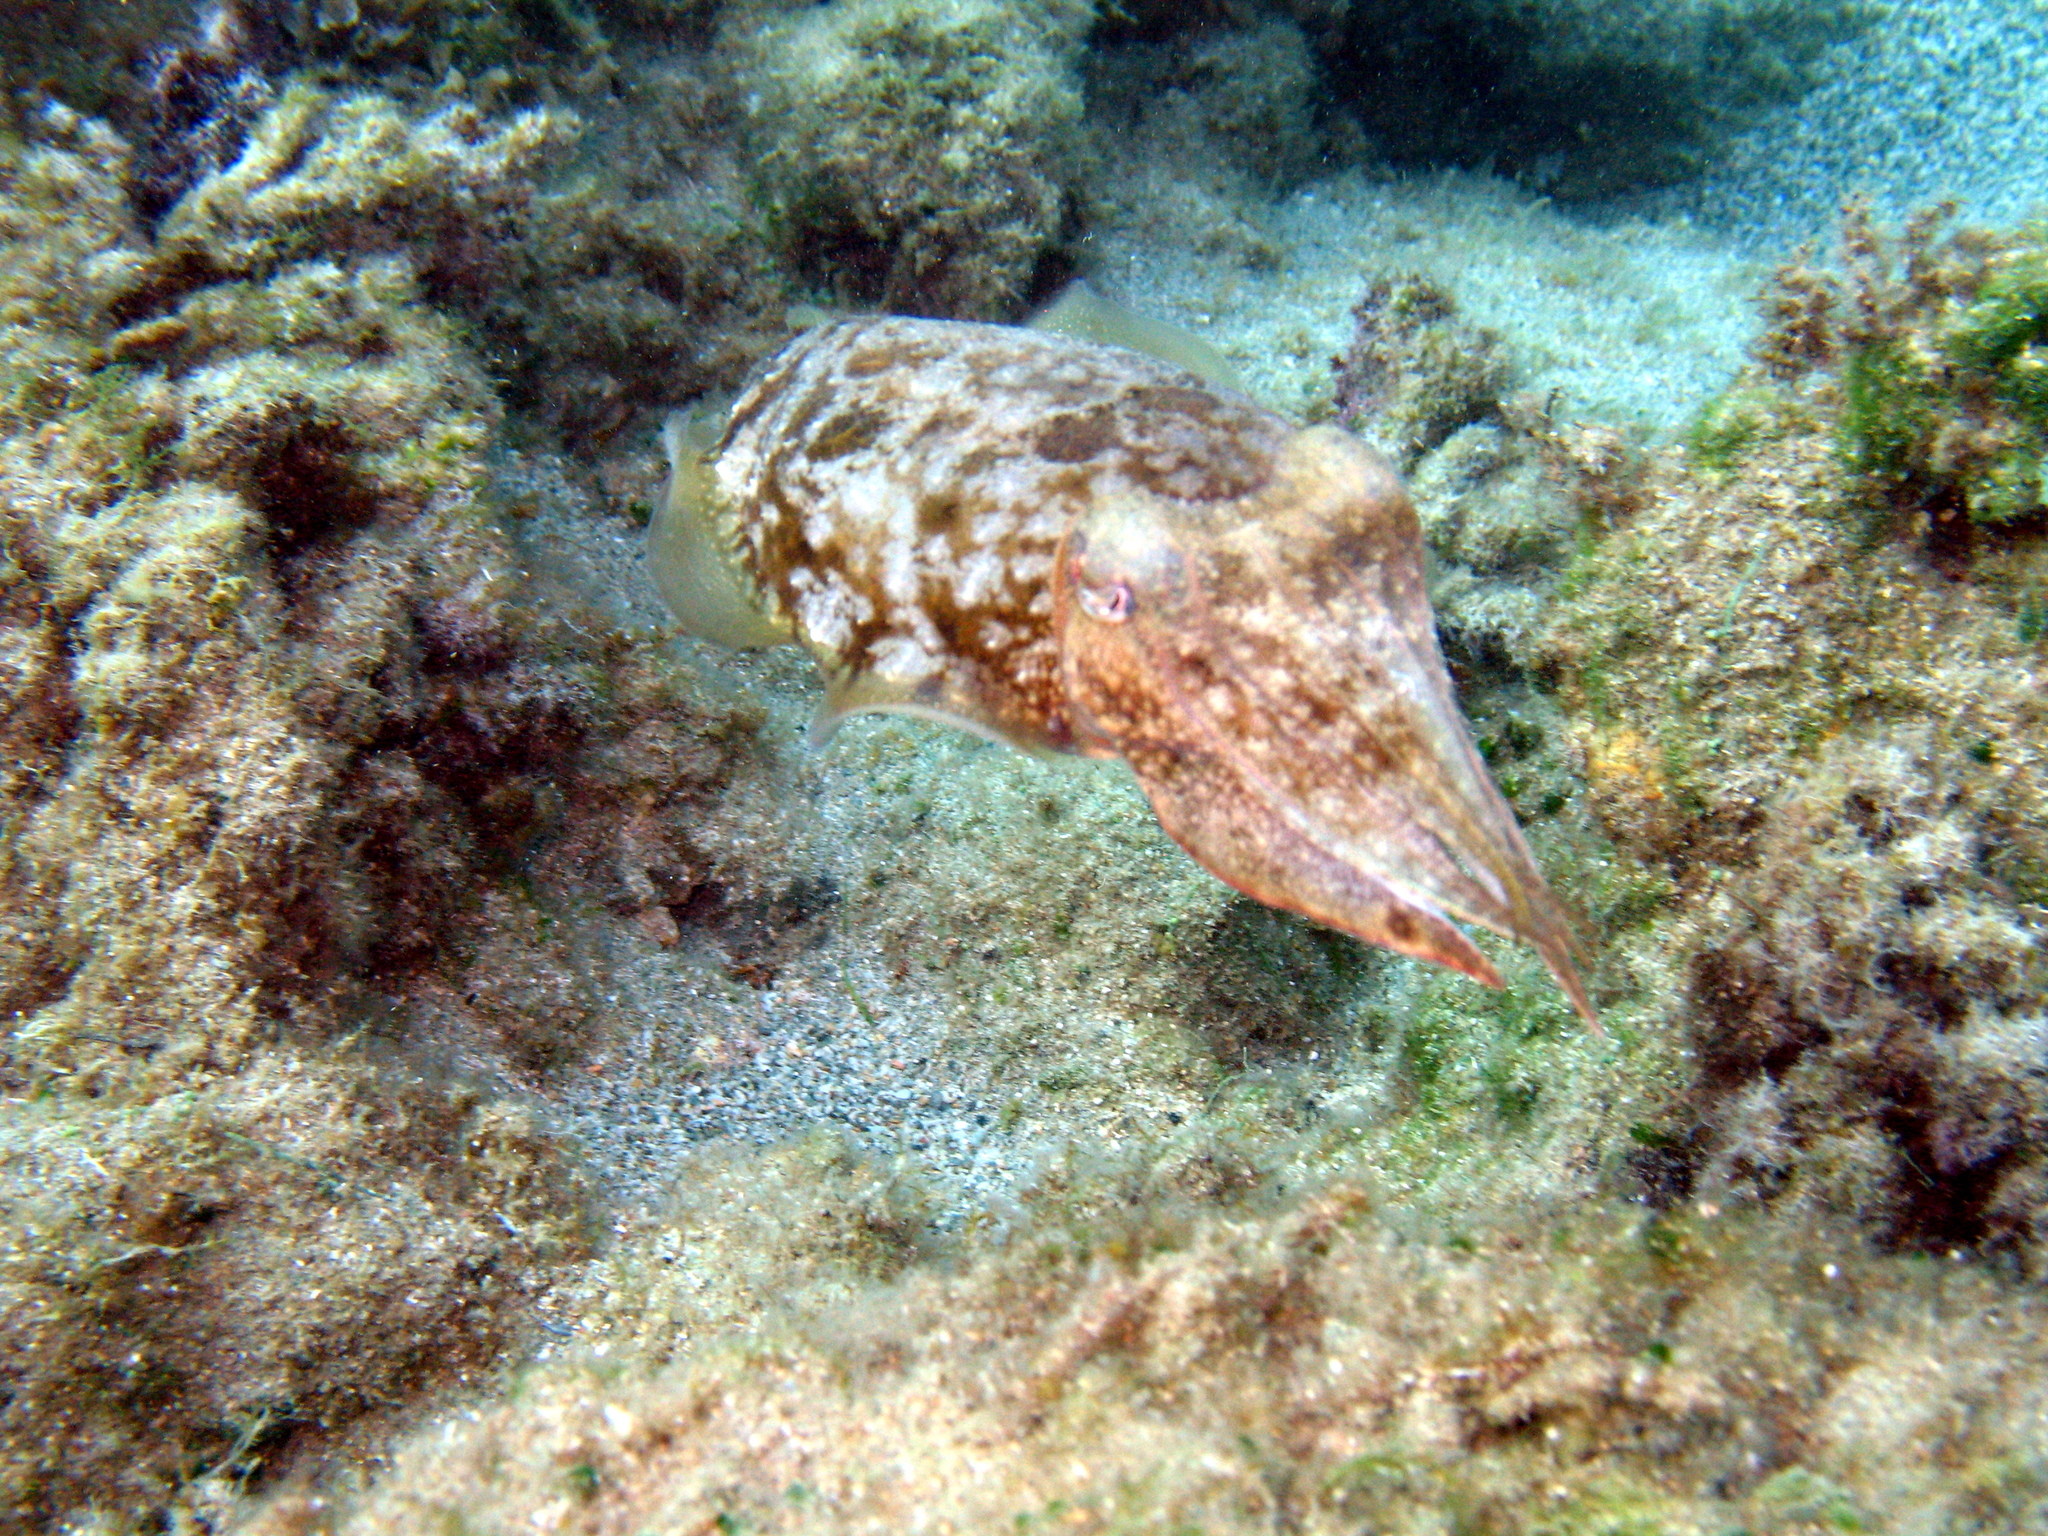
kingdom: Animalia
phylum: Mollusca
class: Cephalopoda
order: Sepiida
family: Sepiidae
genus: Sepia
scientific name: Sepia officinalis
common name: Common cuttlefish
